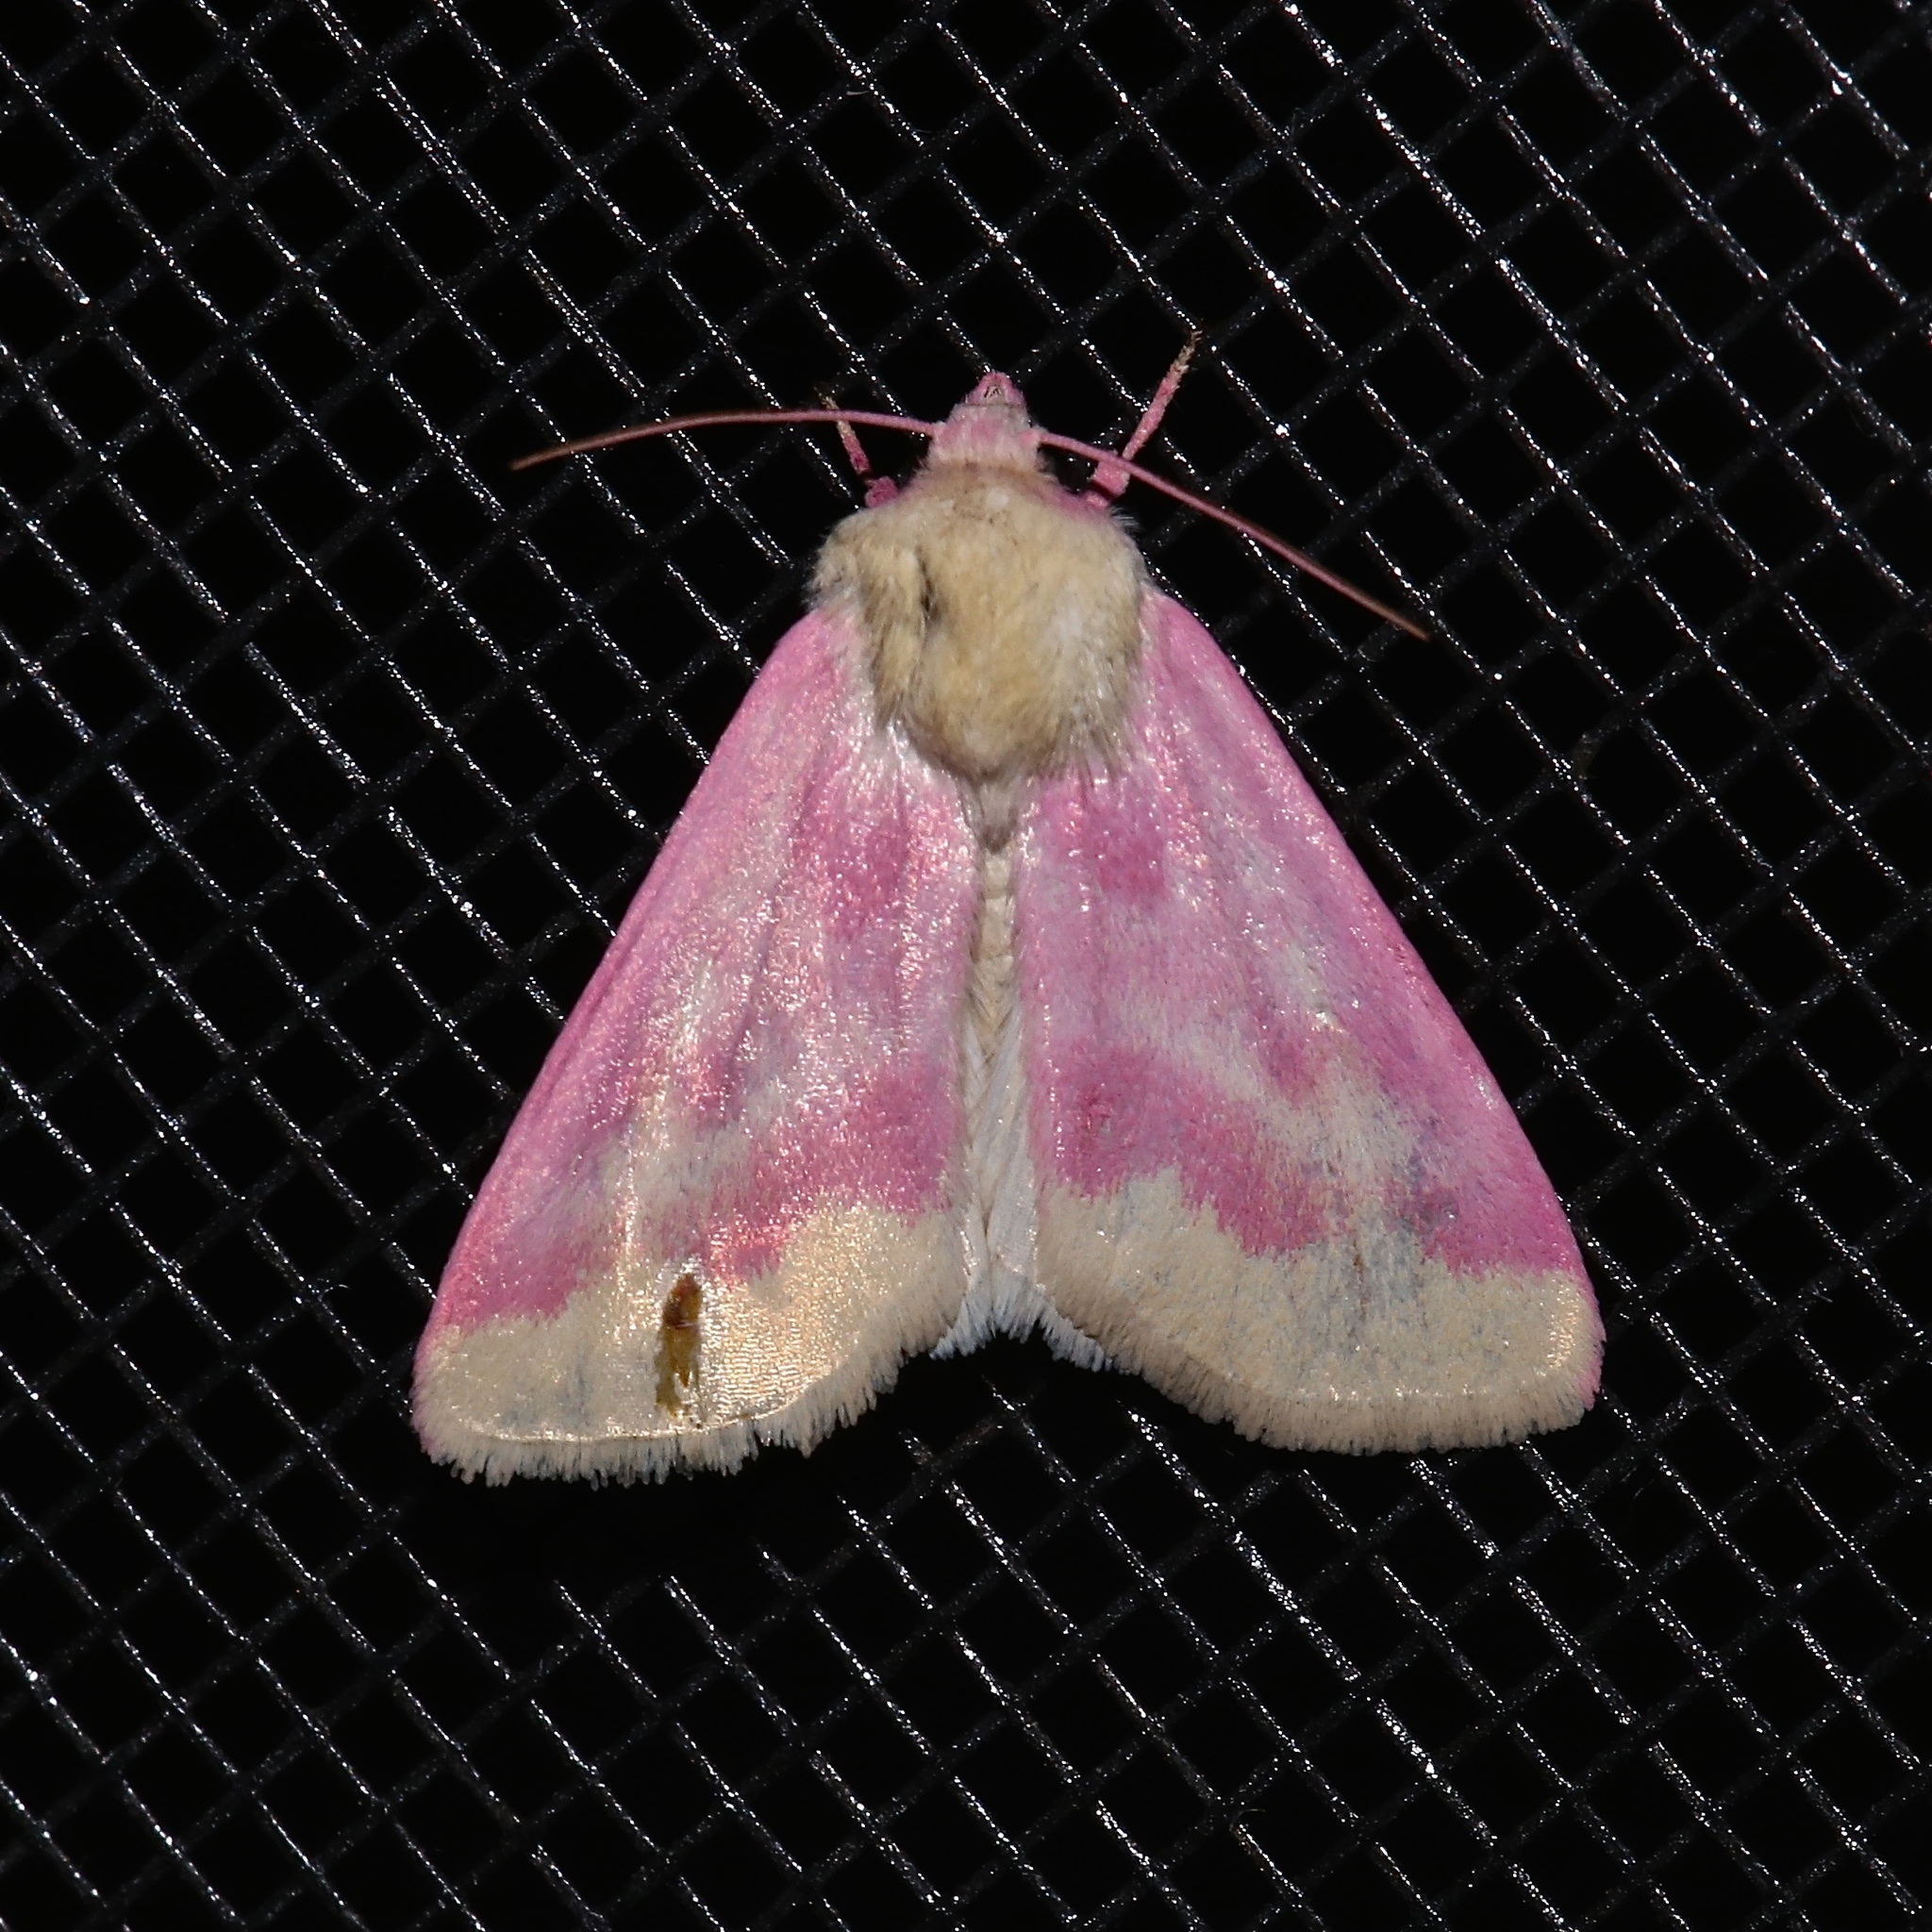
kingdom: Animalia
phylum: Arthropoda
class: Insecta
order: Lepidoptera
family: Noctuidae
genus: Schinia
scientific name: Schinia florida
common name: Primrose moth
